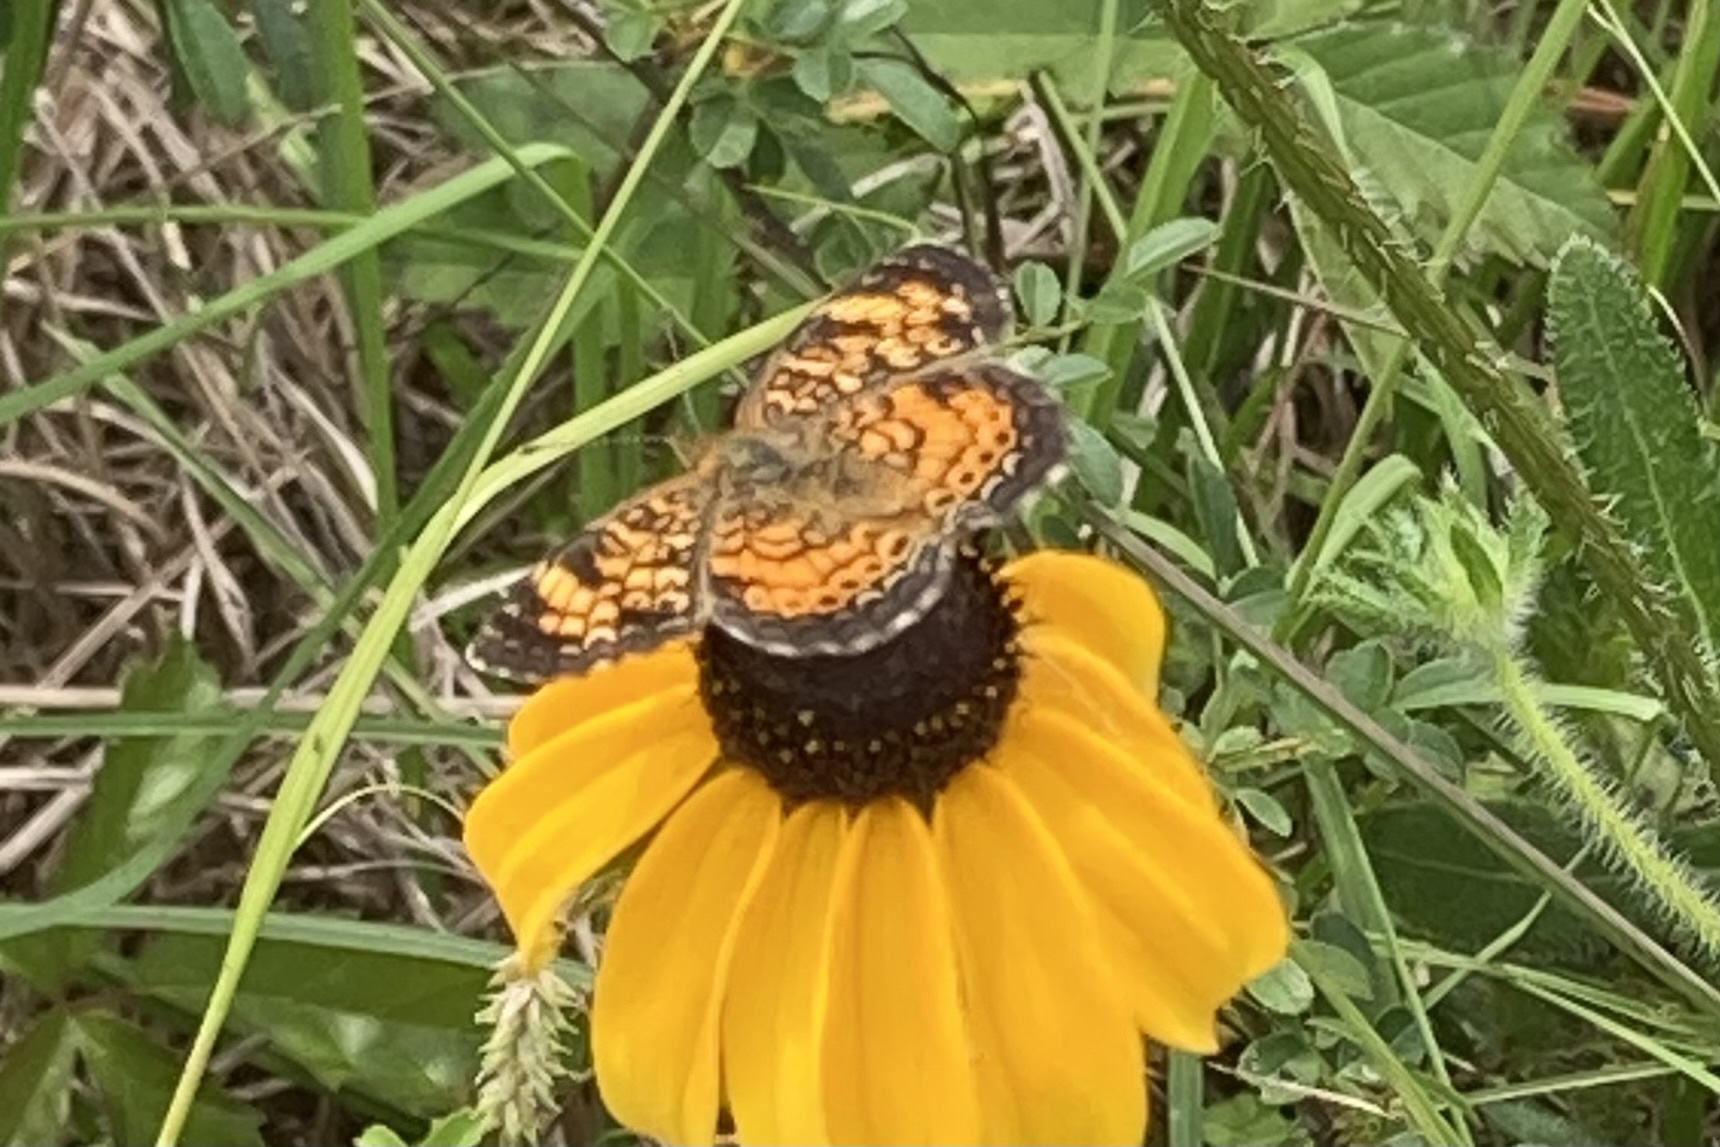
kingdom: Animalia
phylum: Arthropoda
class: Insecta
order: Lepidoptera
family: Nymphalidae
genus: Phyciodes
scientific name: Phyciodes tharos
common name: Pearl crescent
